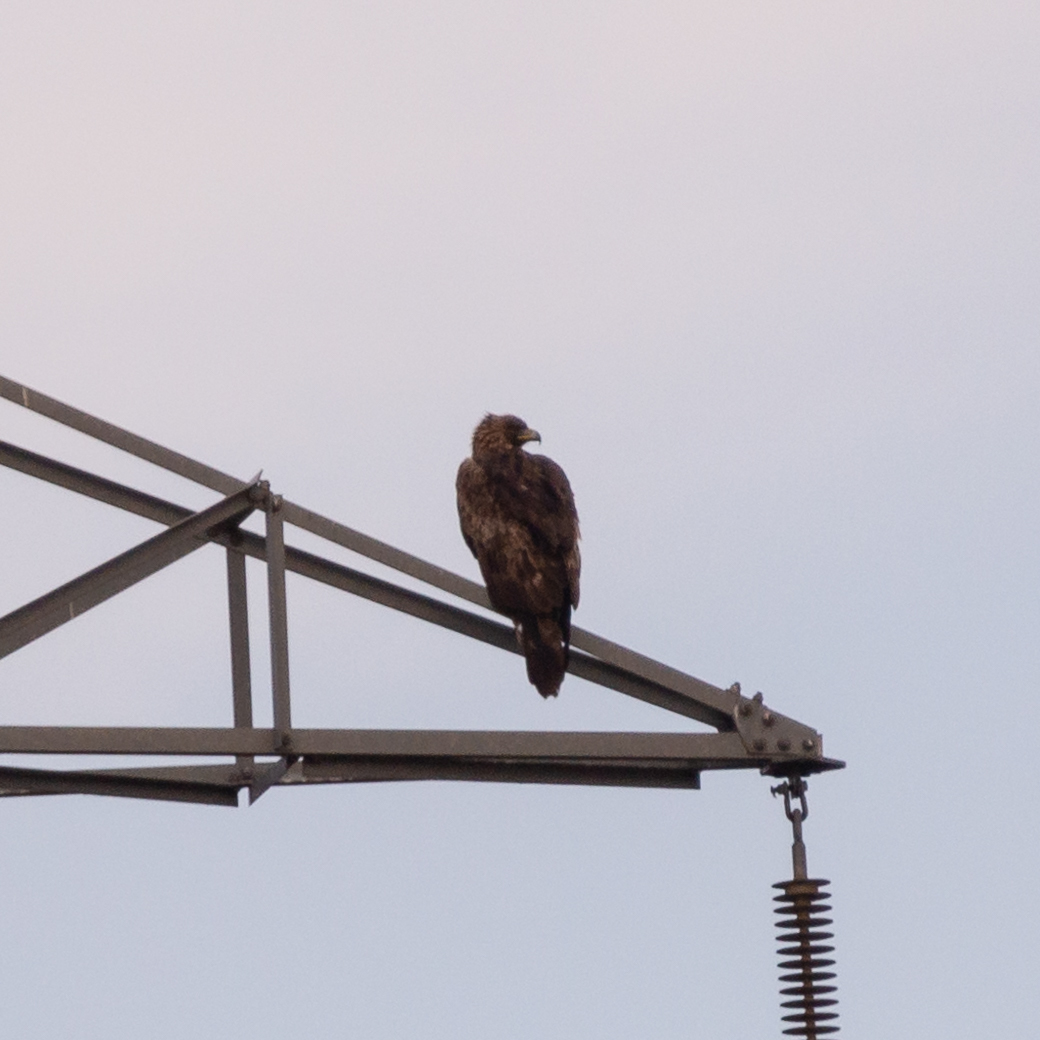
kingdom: Animalia
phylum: Chordata
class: Aves
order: Accipitriformes
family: Accipitridae
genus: Aquila
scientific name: Aquila chrysaetos
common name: Golden eagle
